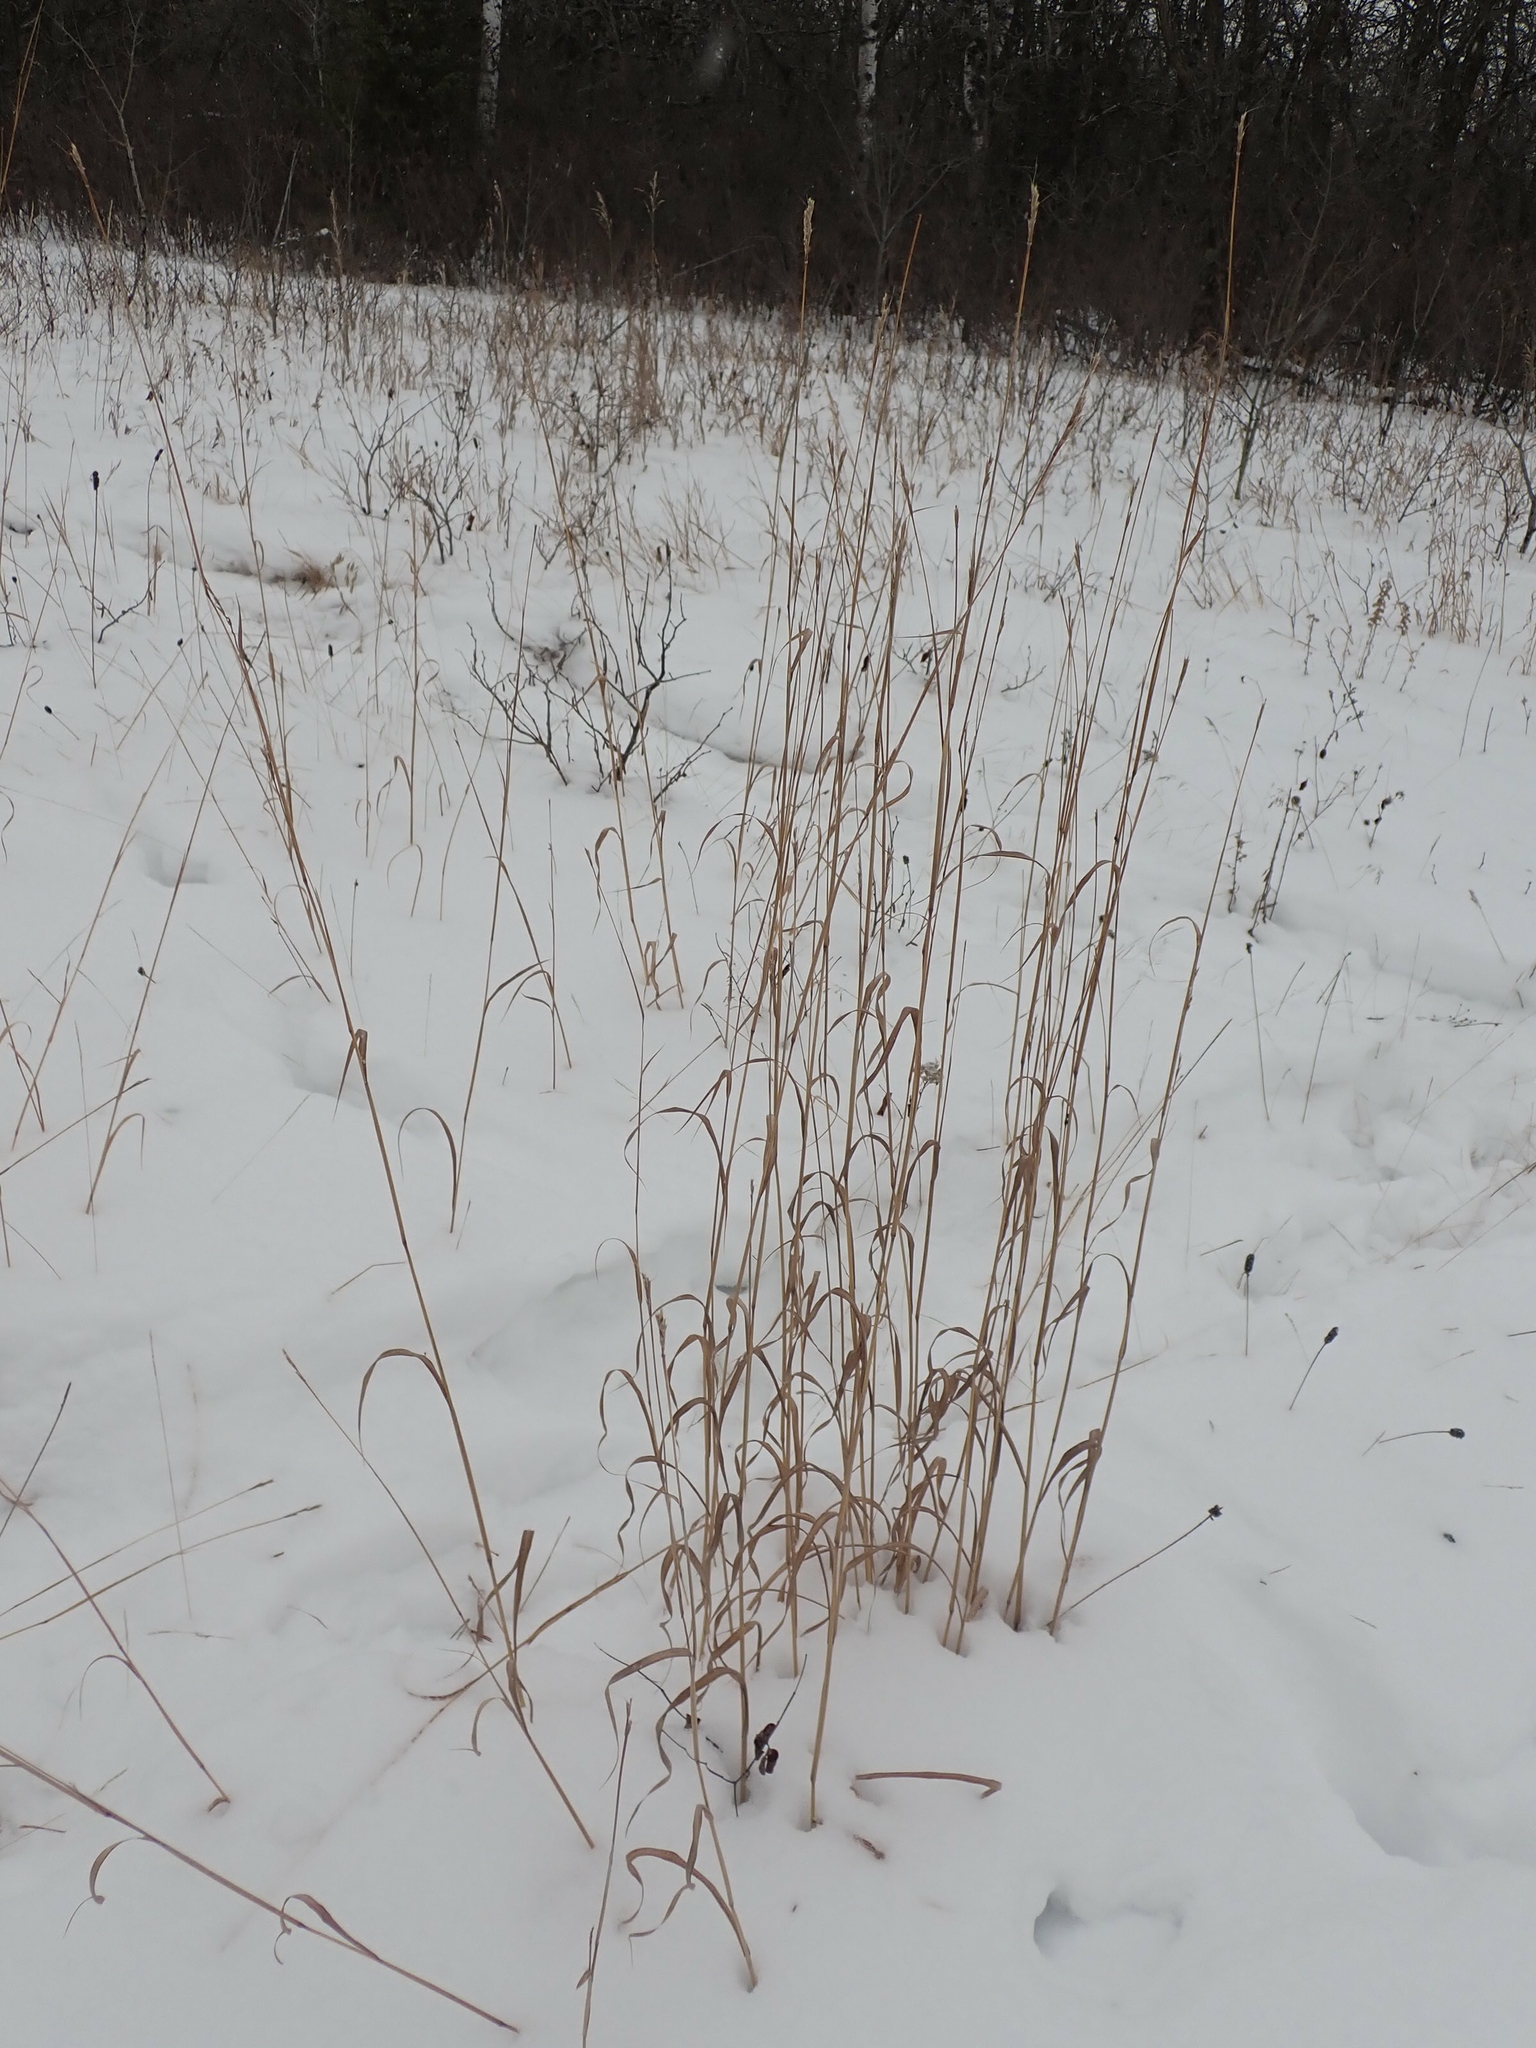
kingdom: Plantae
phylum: Tracheophyta
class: Liliopsida
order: Poales
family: Poaceae
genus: Andropogon
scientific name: Andropogon gerardi
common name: Big bluestem
